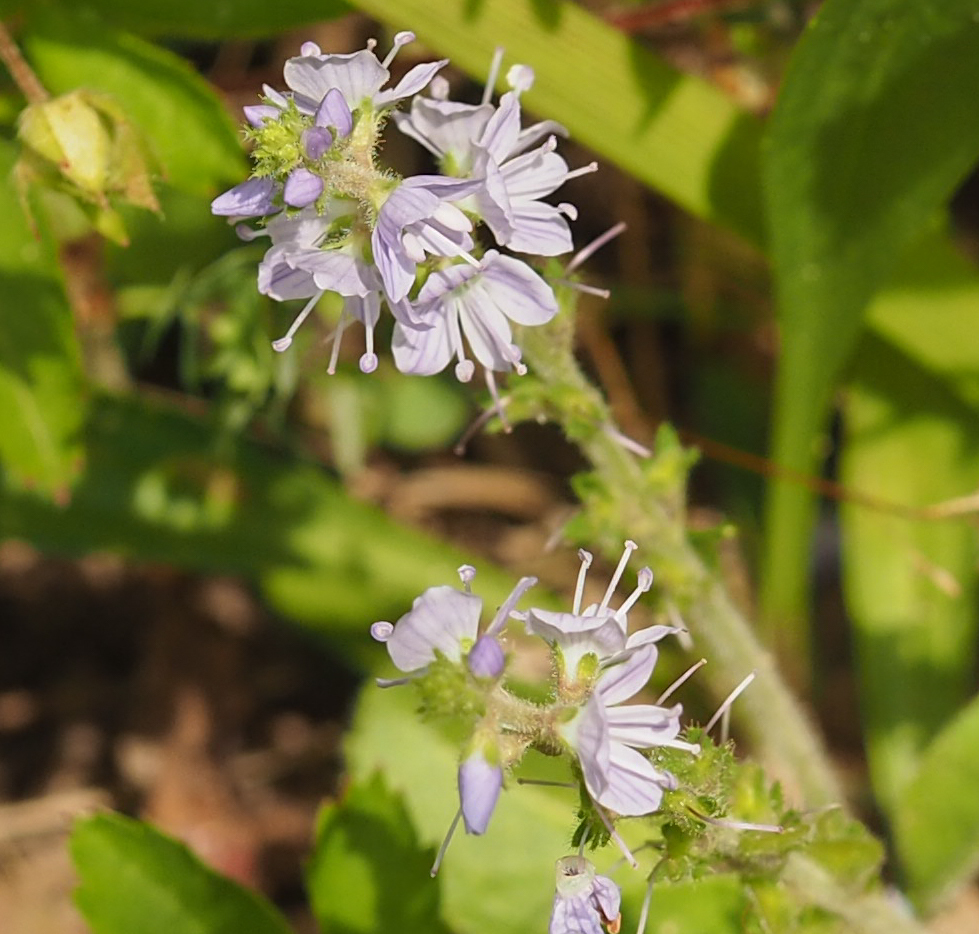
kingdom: Plantae
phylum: Tracheophyta
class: Magnoliopsida
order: Lamiales
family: Plantaginaceae
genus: Veronica
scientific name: Veronica officinalis
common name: Common speedwell
